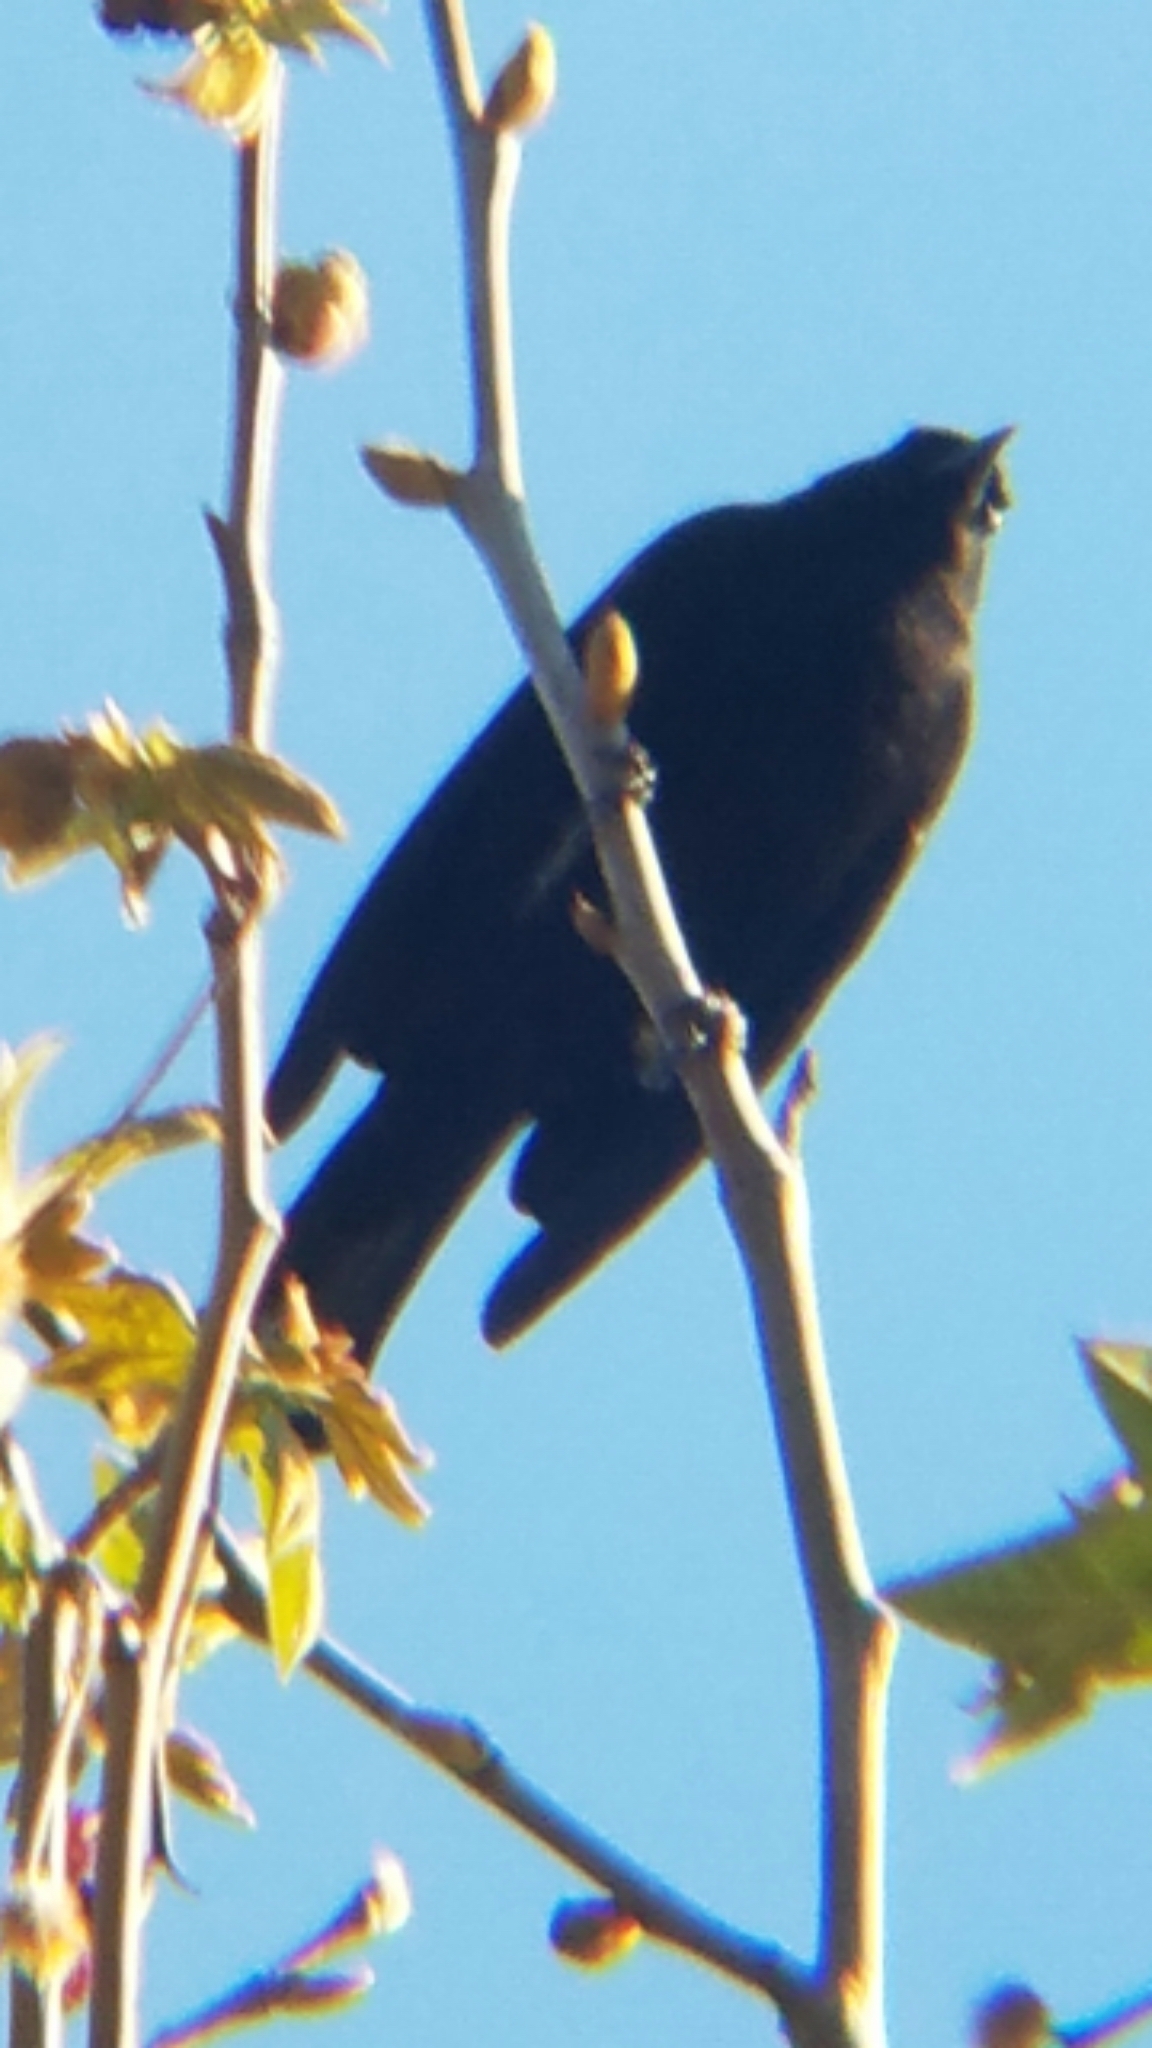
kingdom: Animalia
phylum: Chordata
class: Aves
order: Passeriformes
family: Icteridae
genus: Euphagus
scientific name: Euphagus cyanocephalus
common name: Brewer's blackbird
